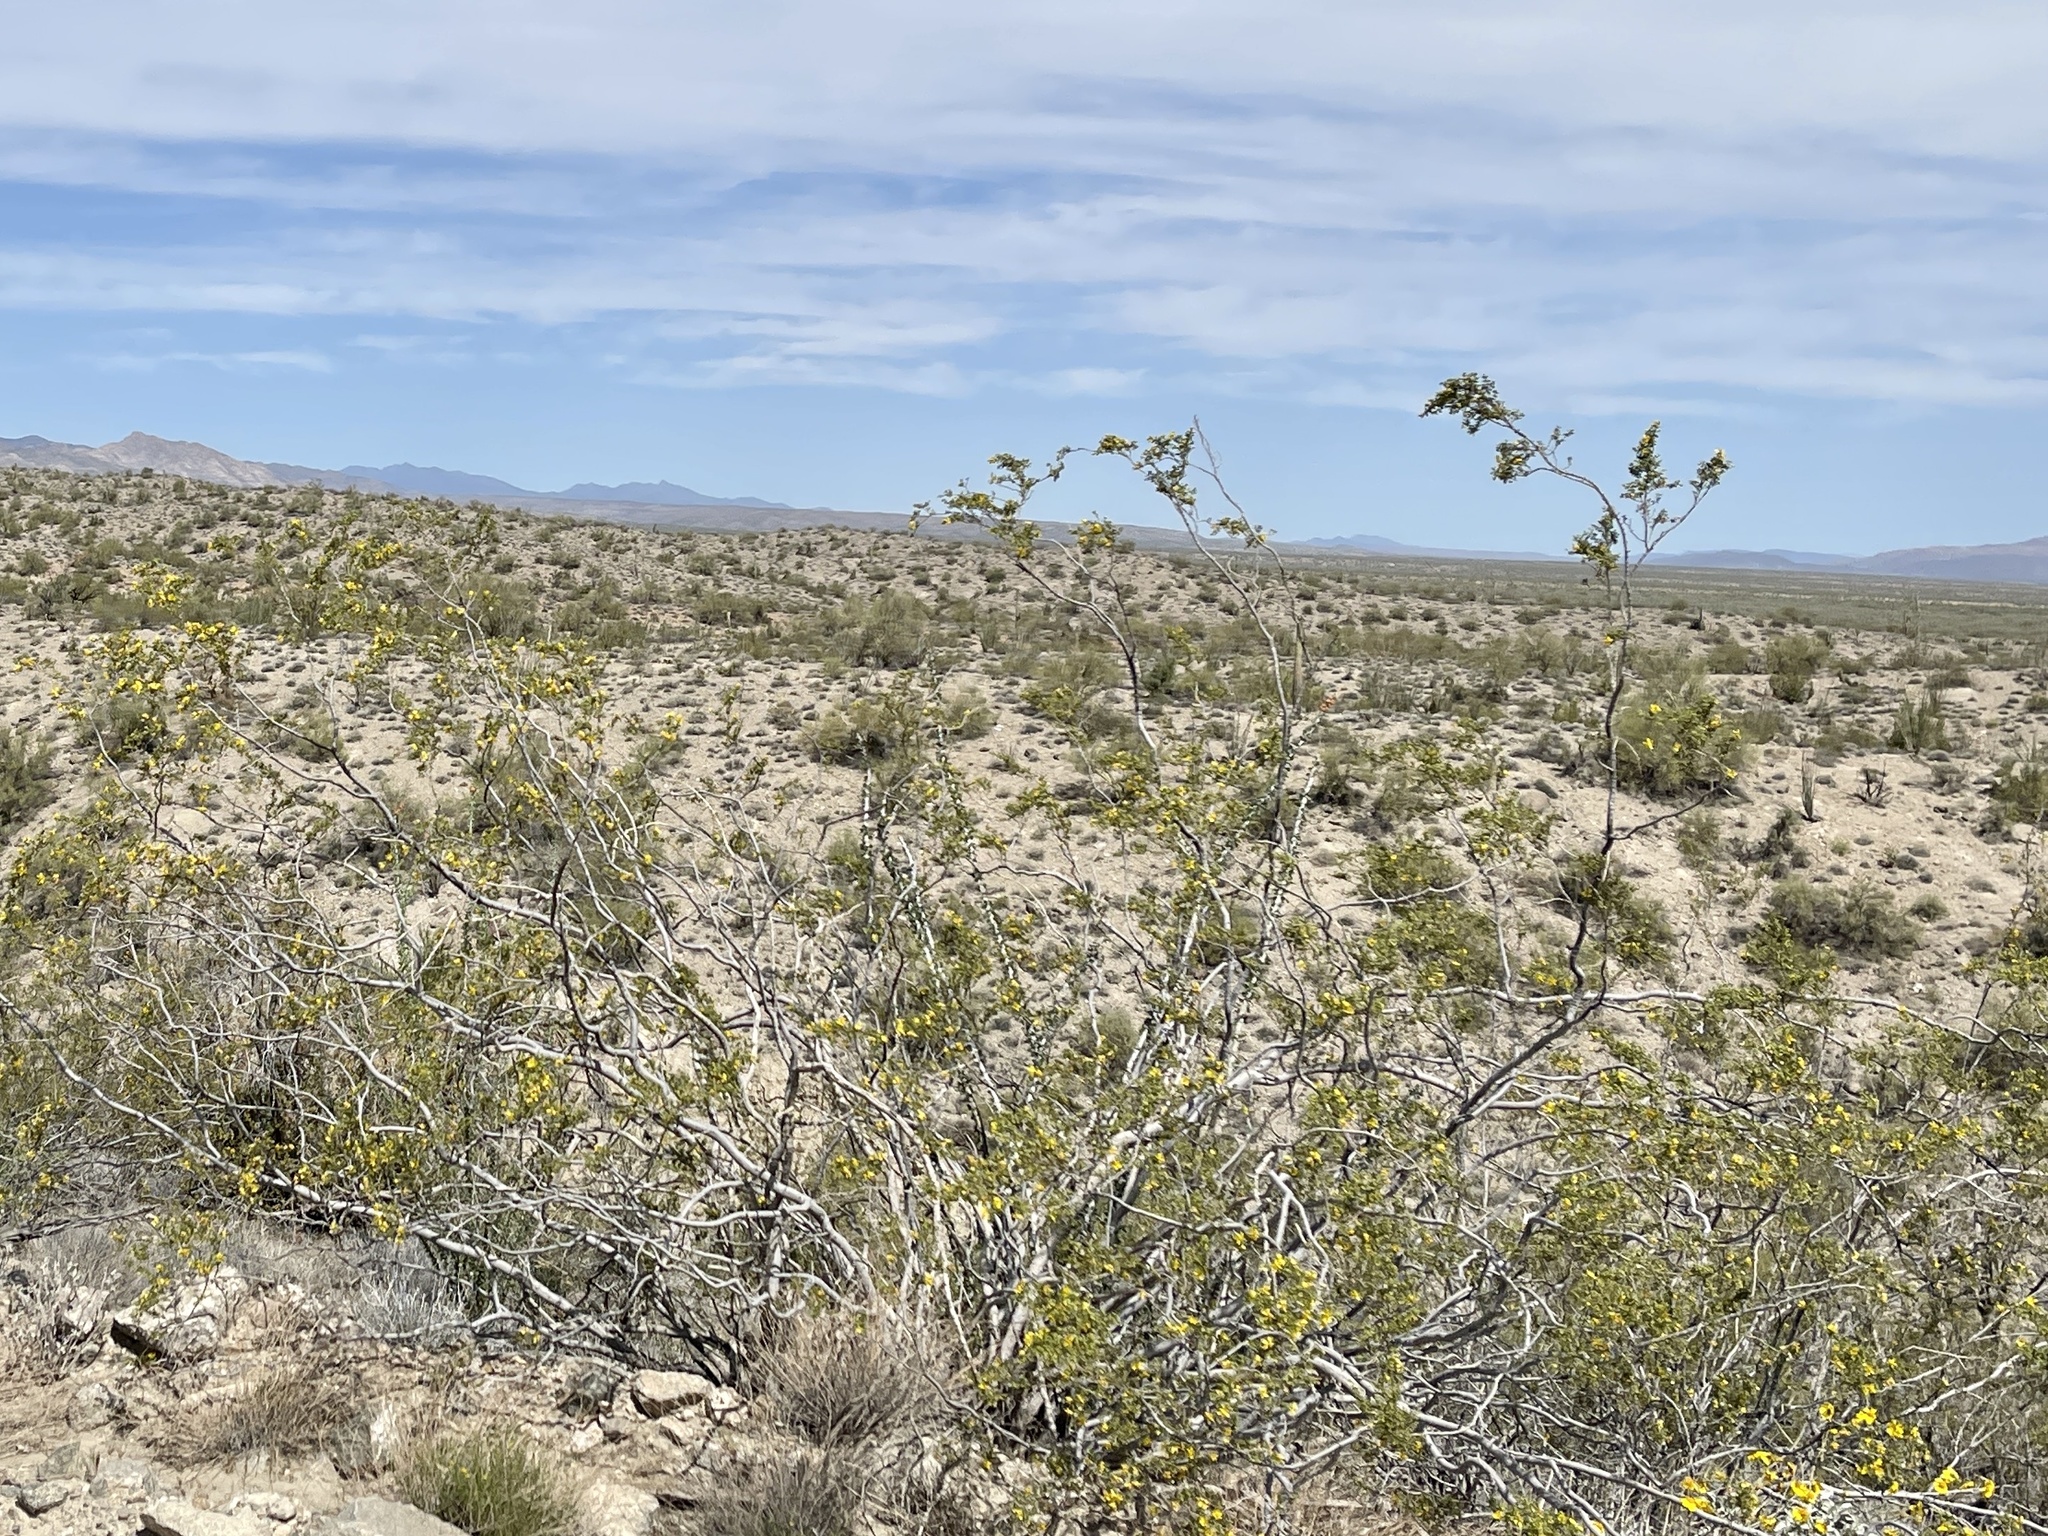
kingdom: Plantae
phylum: Tracheophyta
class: Magnoliopsida
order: Zygophyllales
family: Zygophyllaceae
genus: Larrea
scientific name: Larrea tridentata
